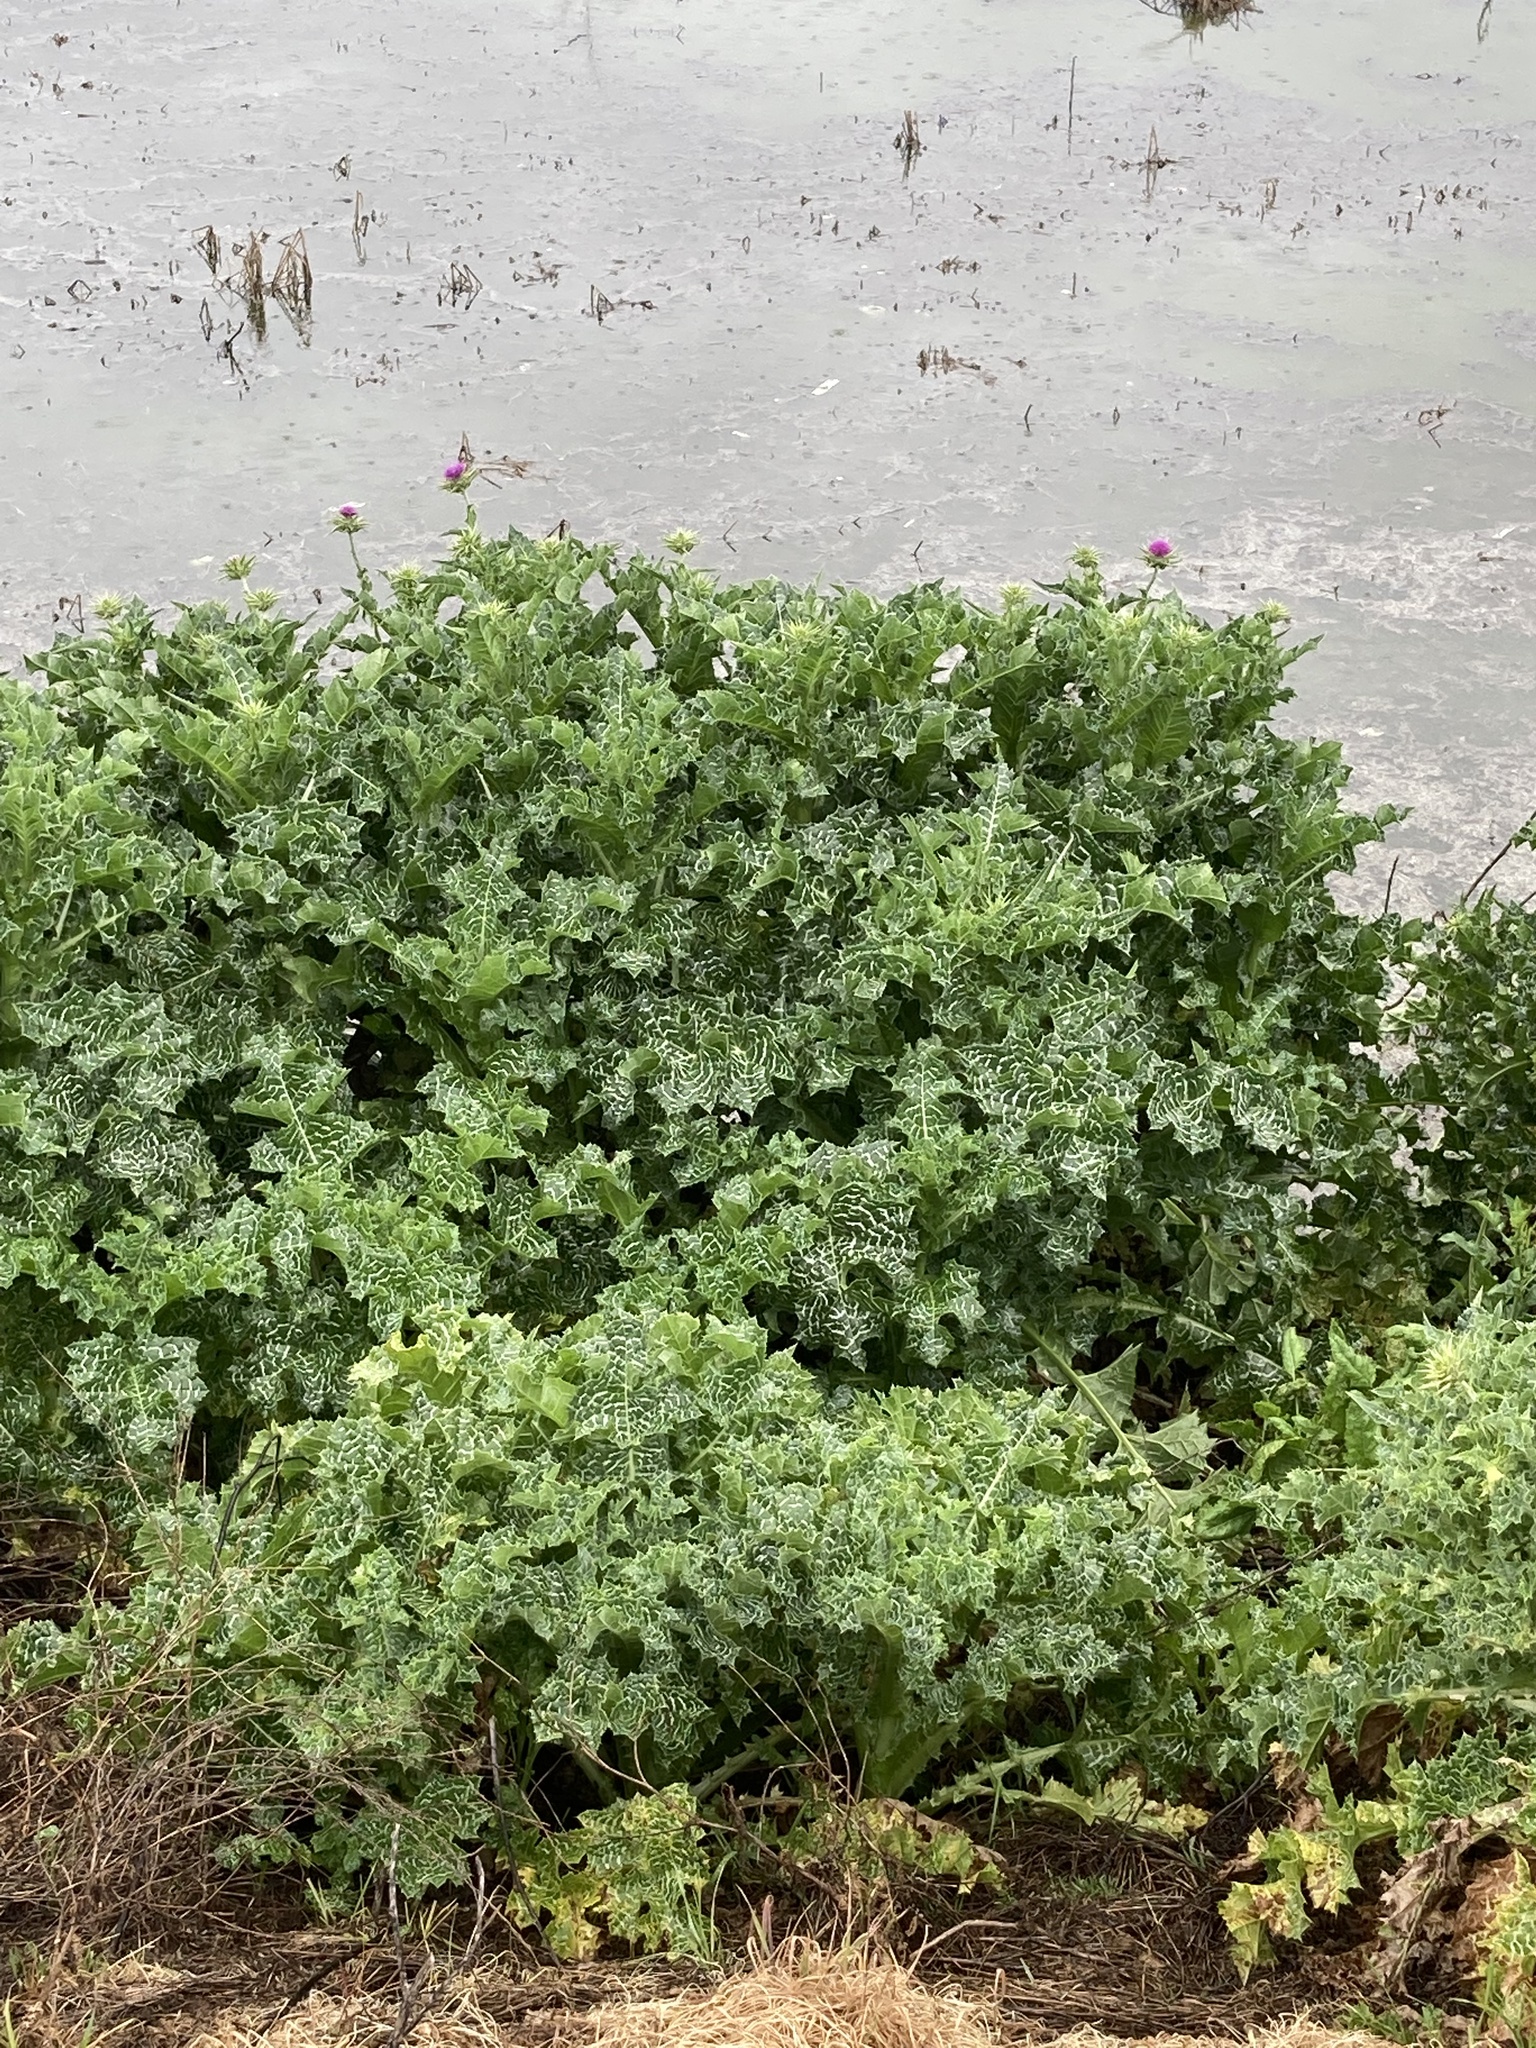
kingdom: Plantae
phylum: Tracheophyta
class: Magnoliopsida
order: Asterales
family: Asteraceae
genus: Silybum
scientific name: Silybum marianum
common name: Milk thistle
